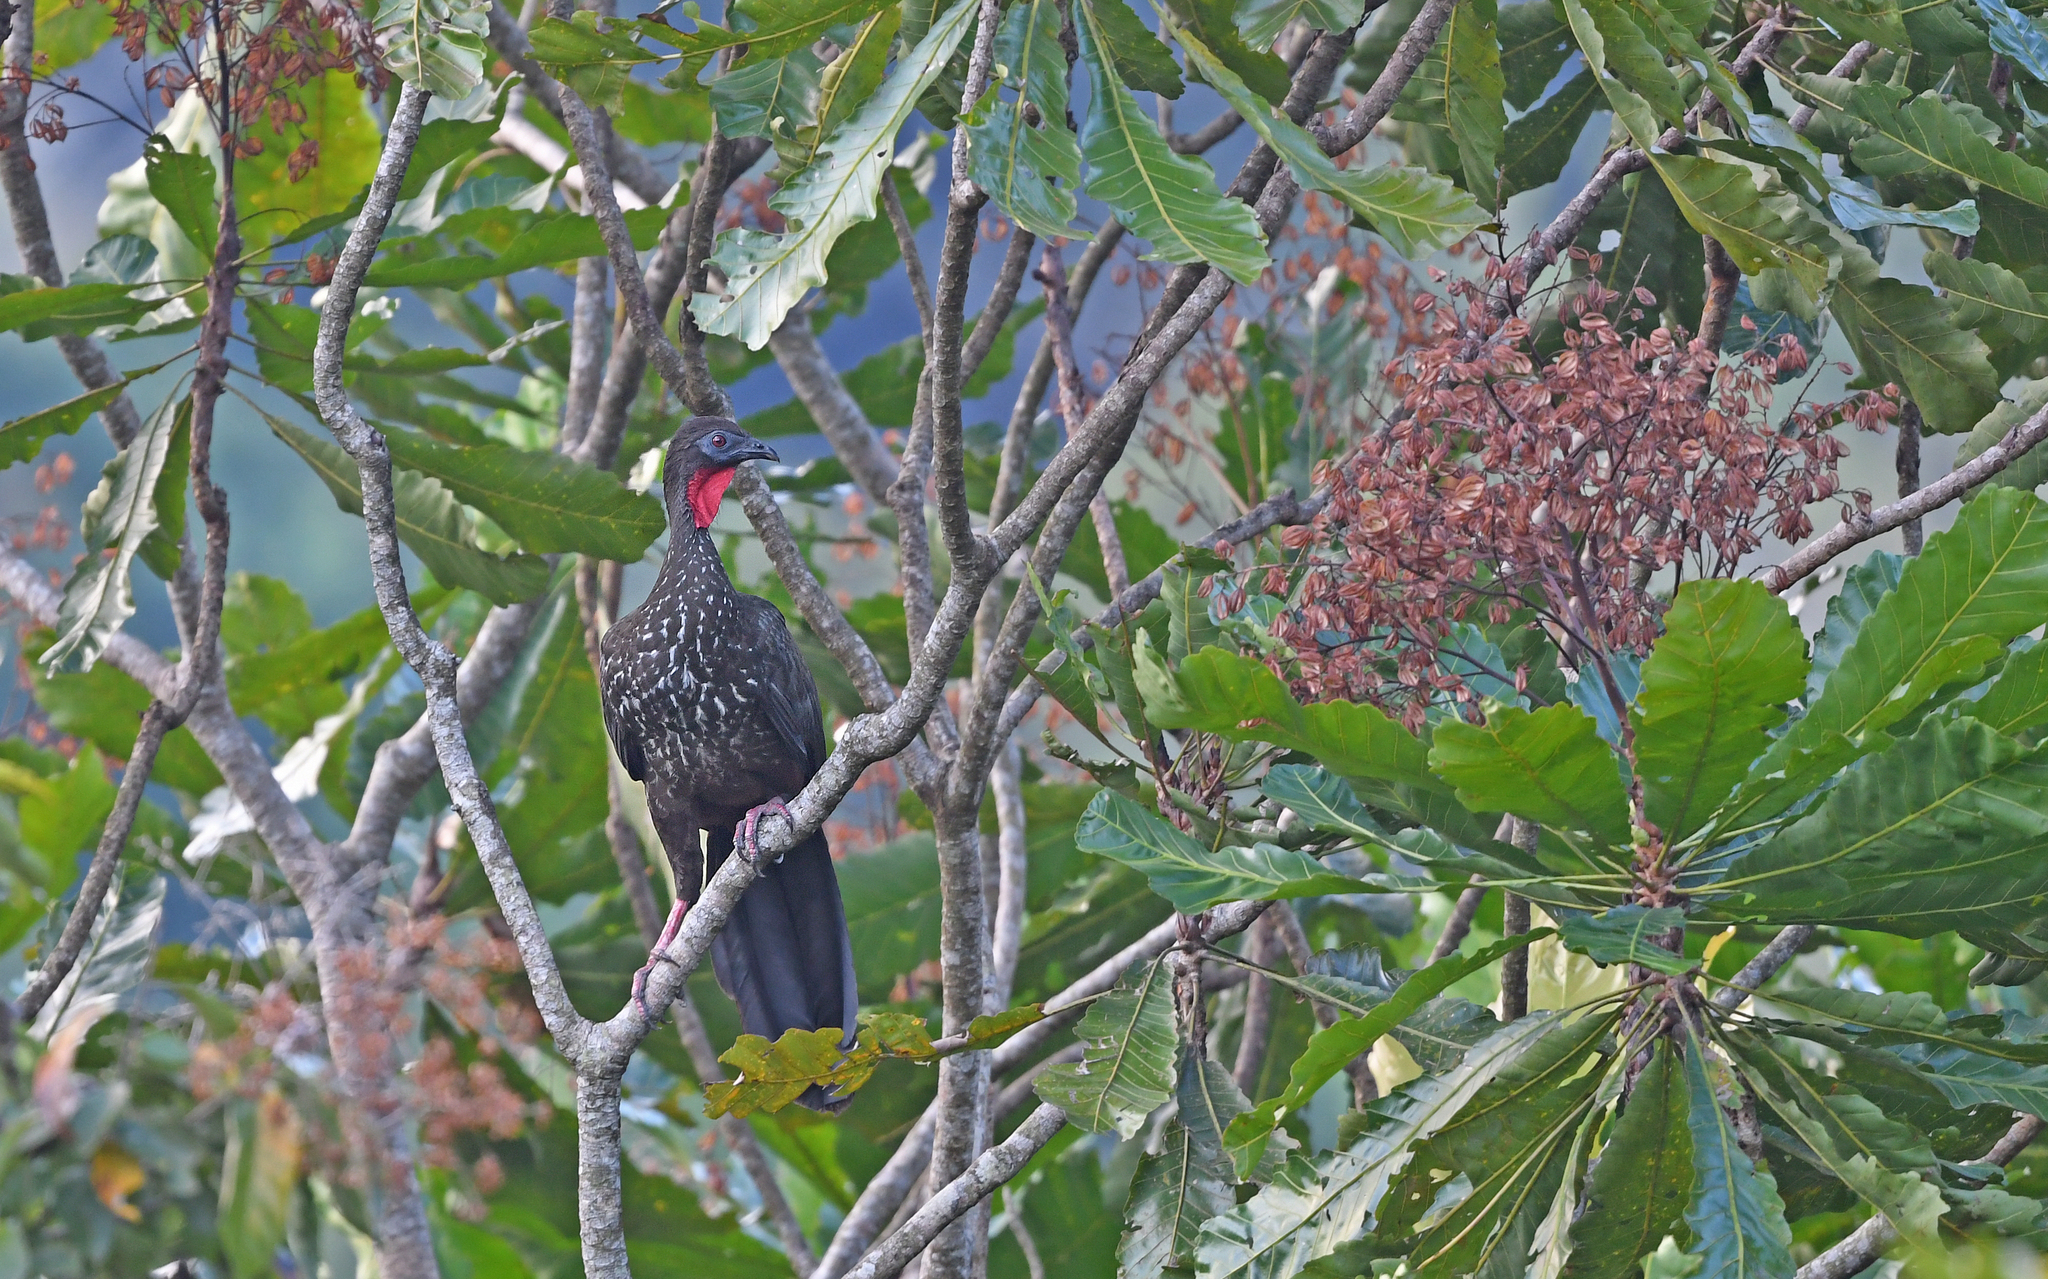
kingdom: Animalia
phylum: Chordata
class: Aves
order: Galliformes
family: Cracidae
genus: Penelope
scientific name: Penelope purpurascens
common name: Crested guan
